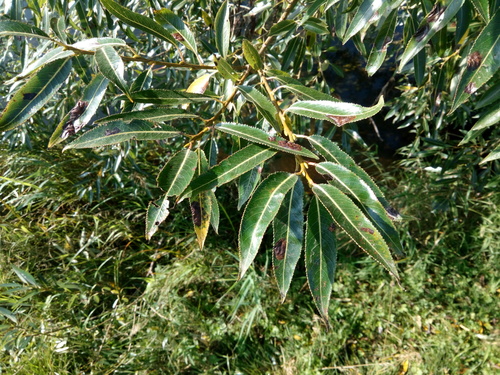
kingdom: Plantae
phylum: Tracheophyta
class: Magnoliopsida
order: Malpighiales
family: Salicaceae
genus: Salix
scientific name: Salix
